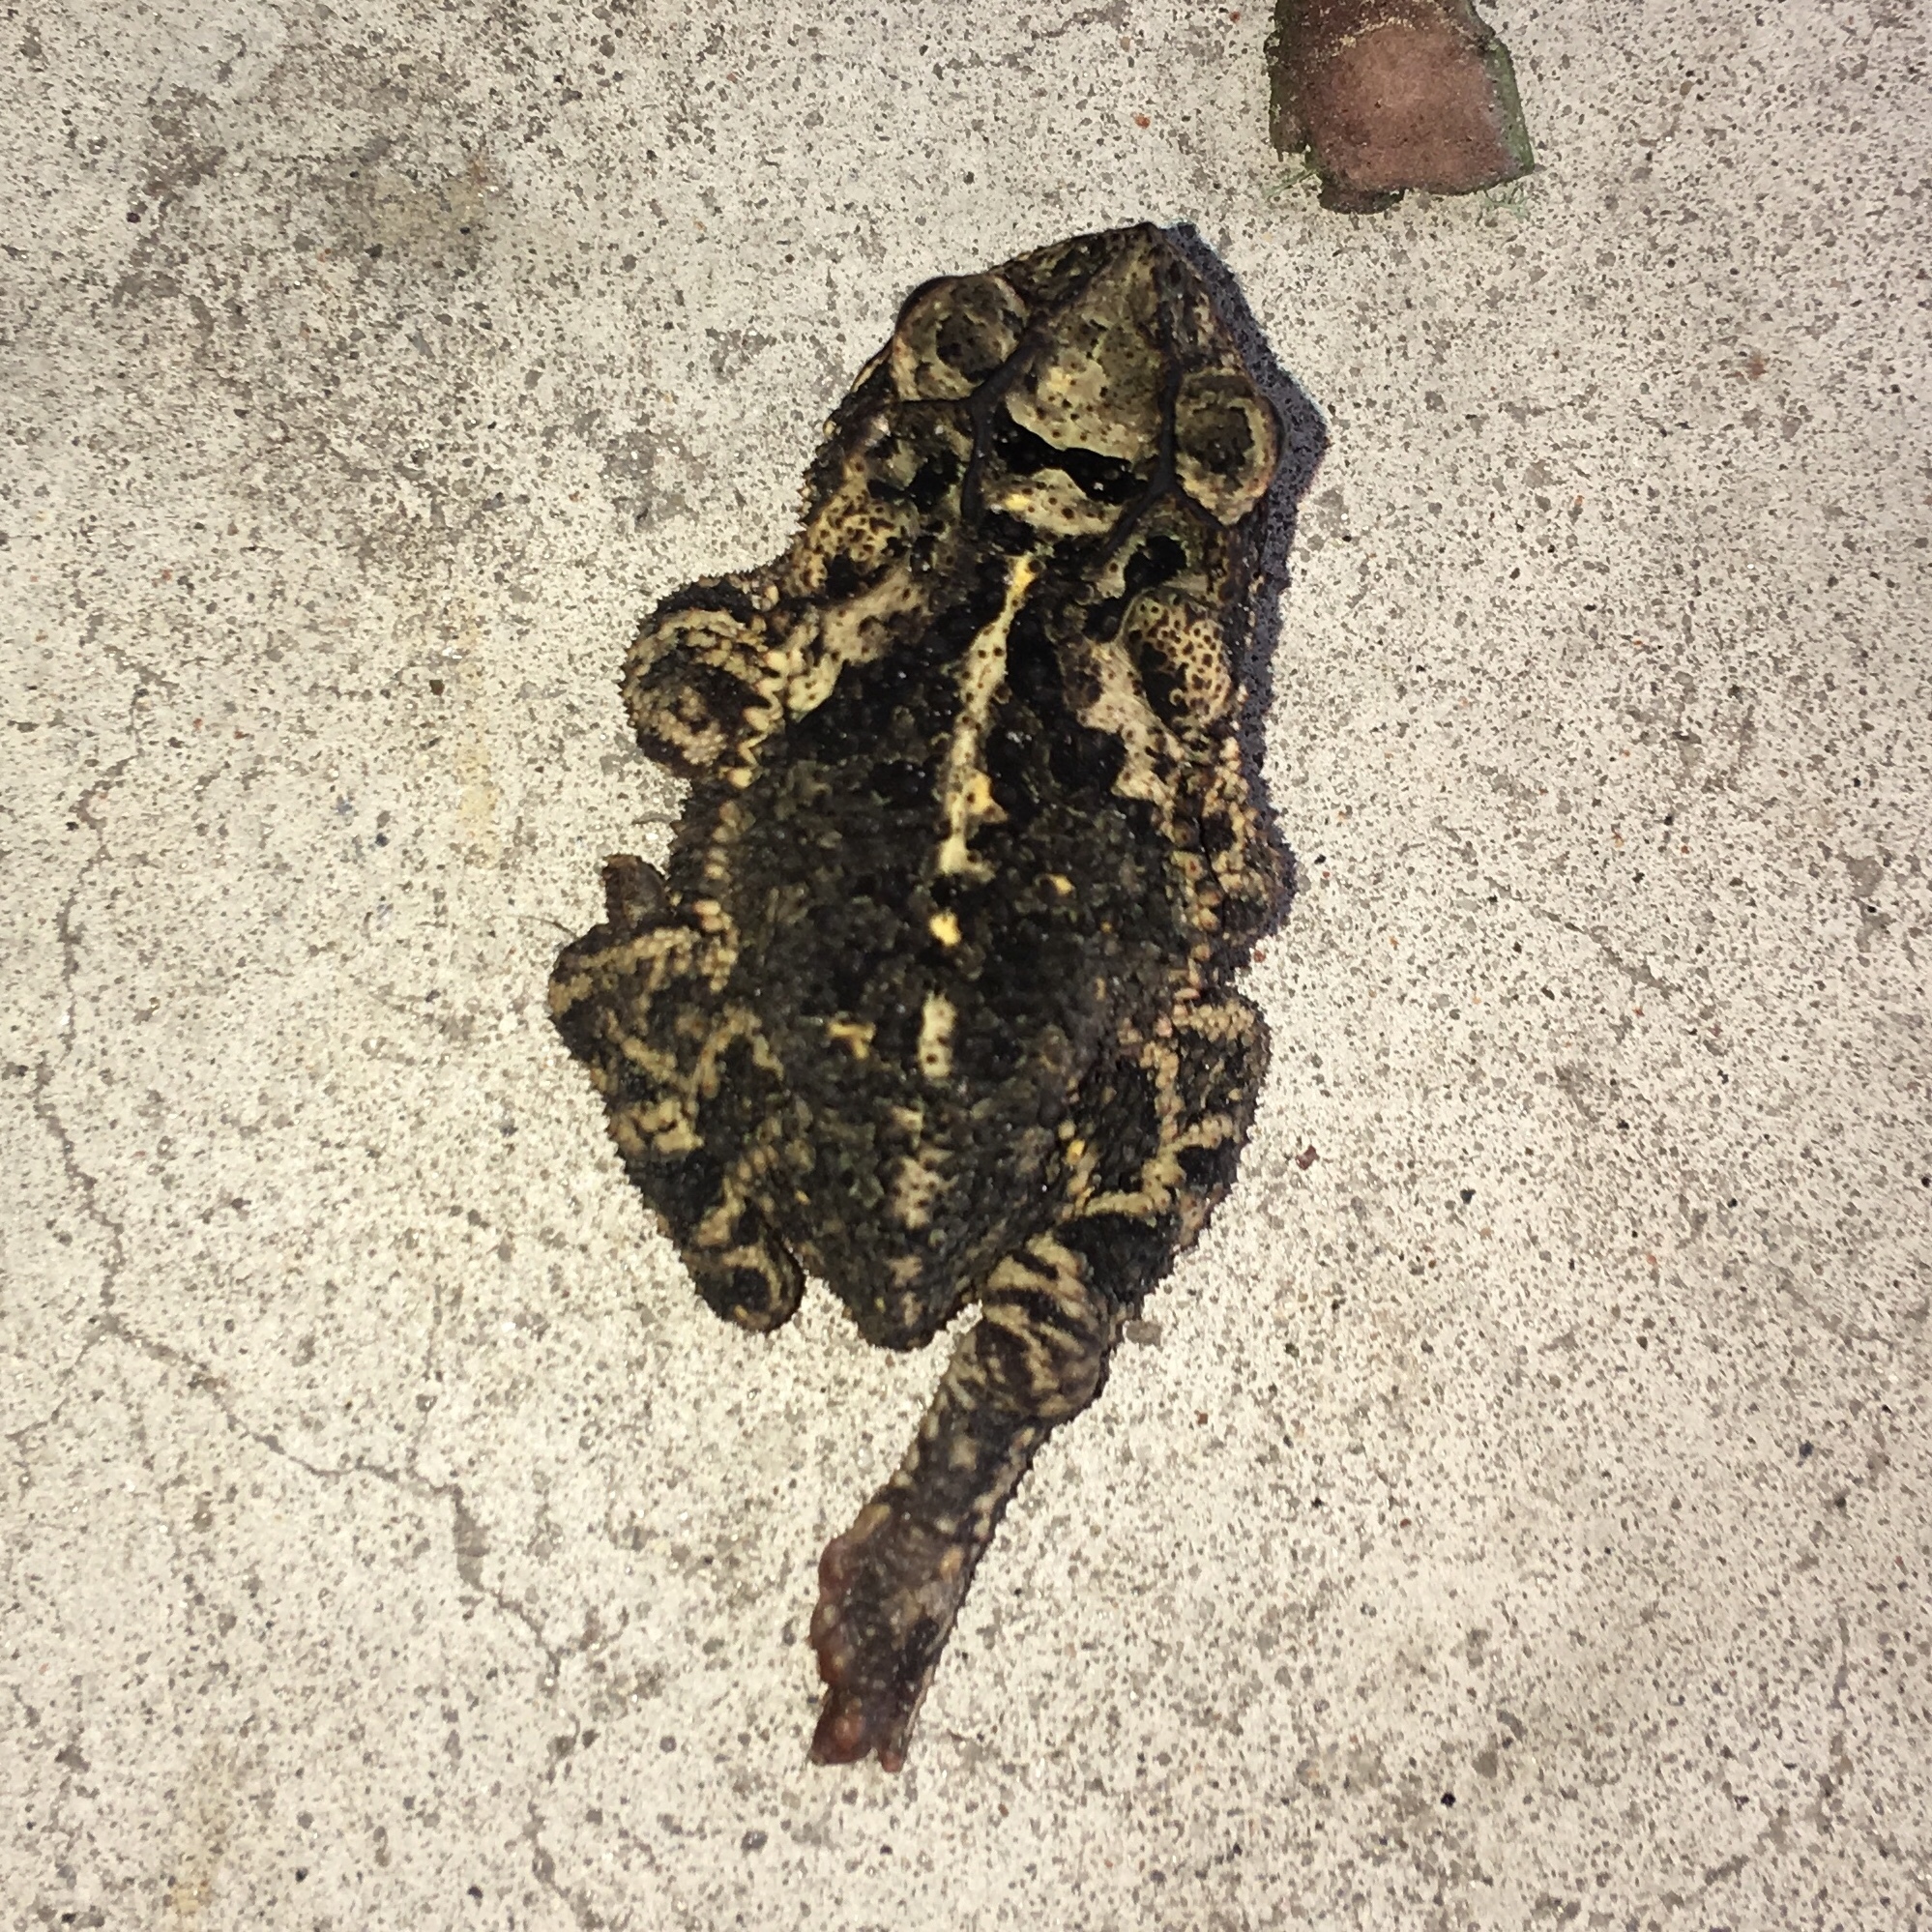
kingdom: Animalia
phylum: Chordata
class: Amphibia
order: Anura
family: Bufonidae
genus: Incilius
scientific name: Incilius nebulifer
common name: Gulf coast toad
